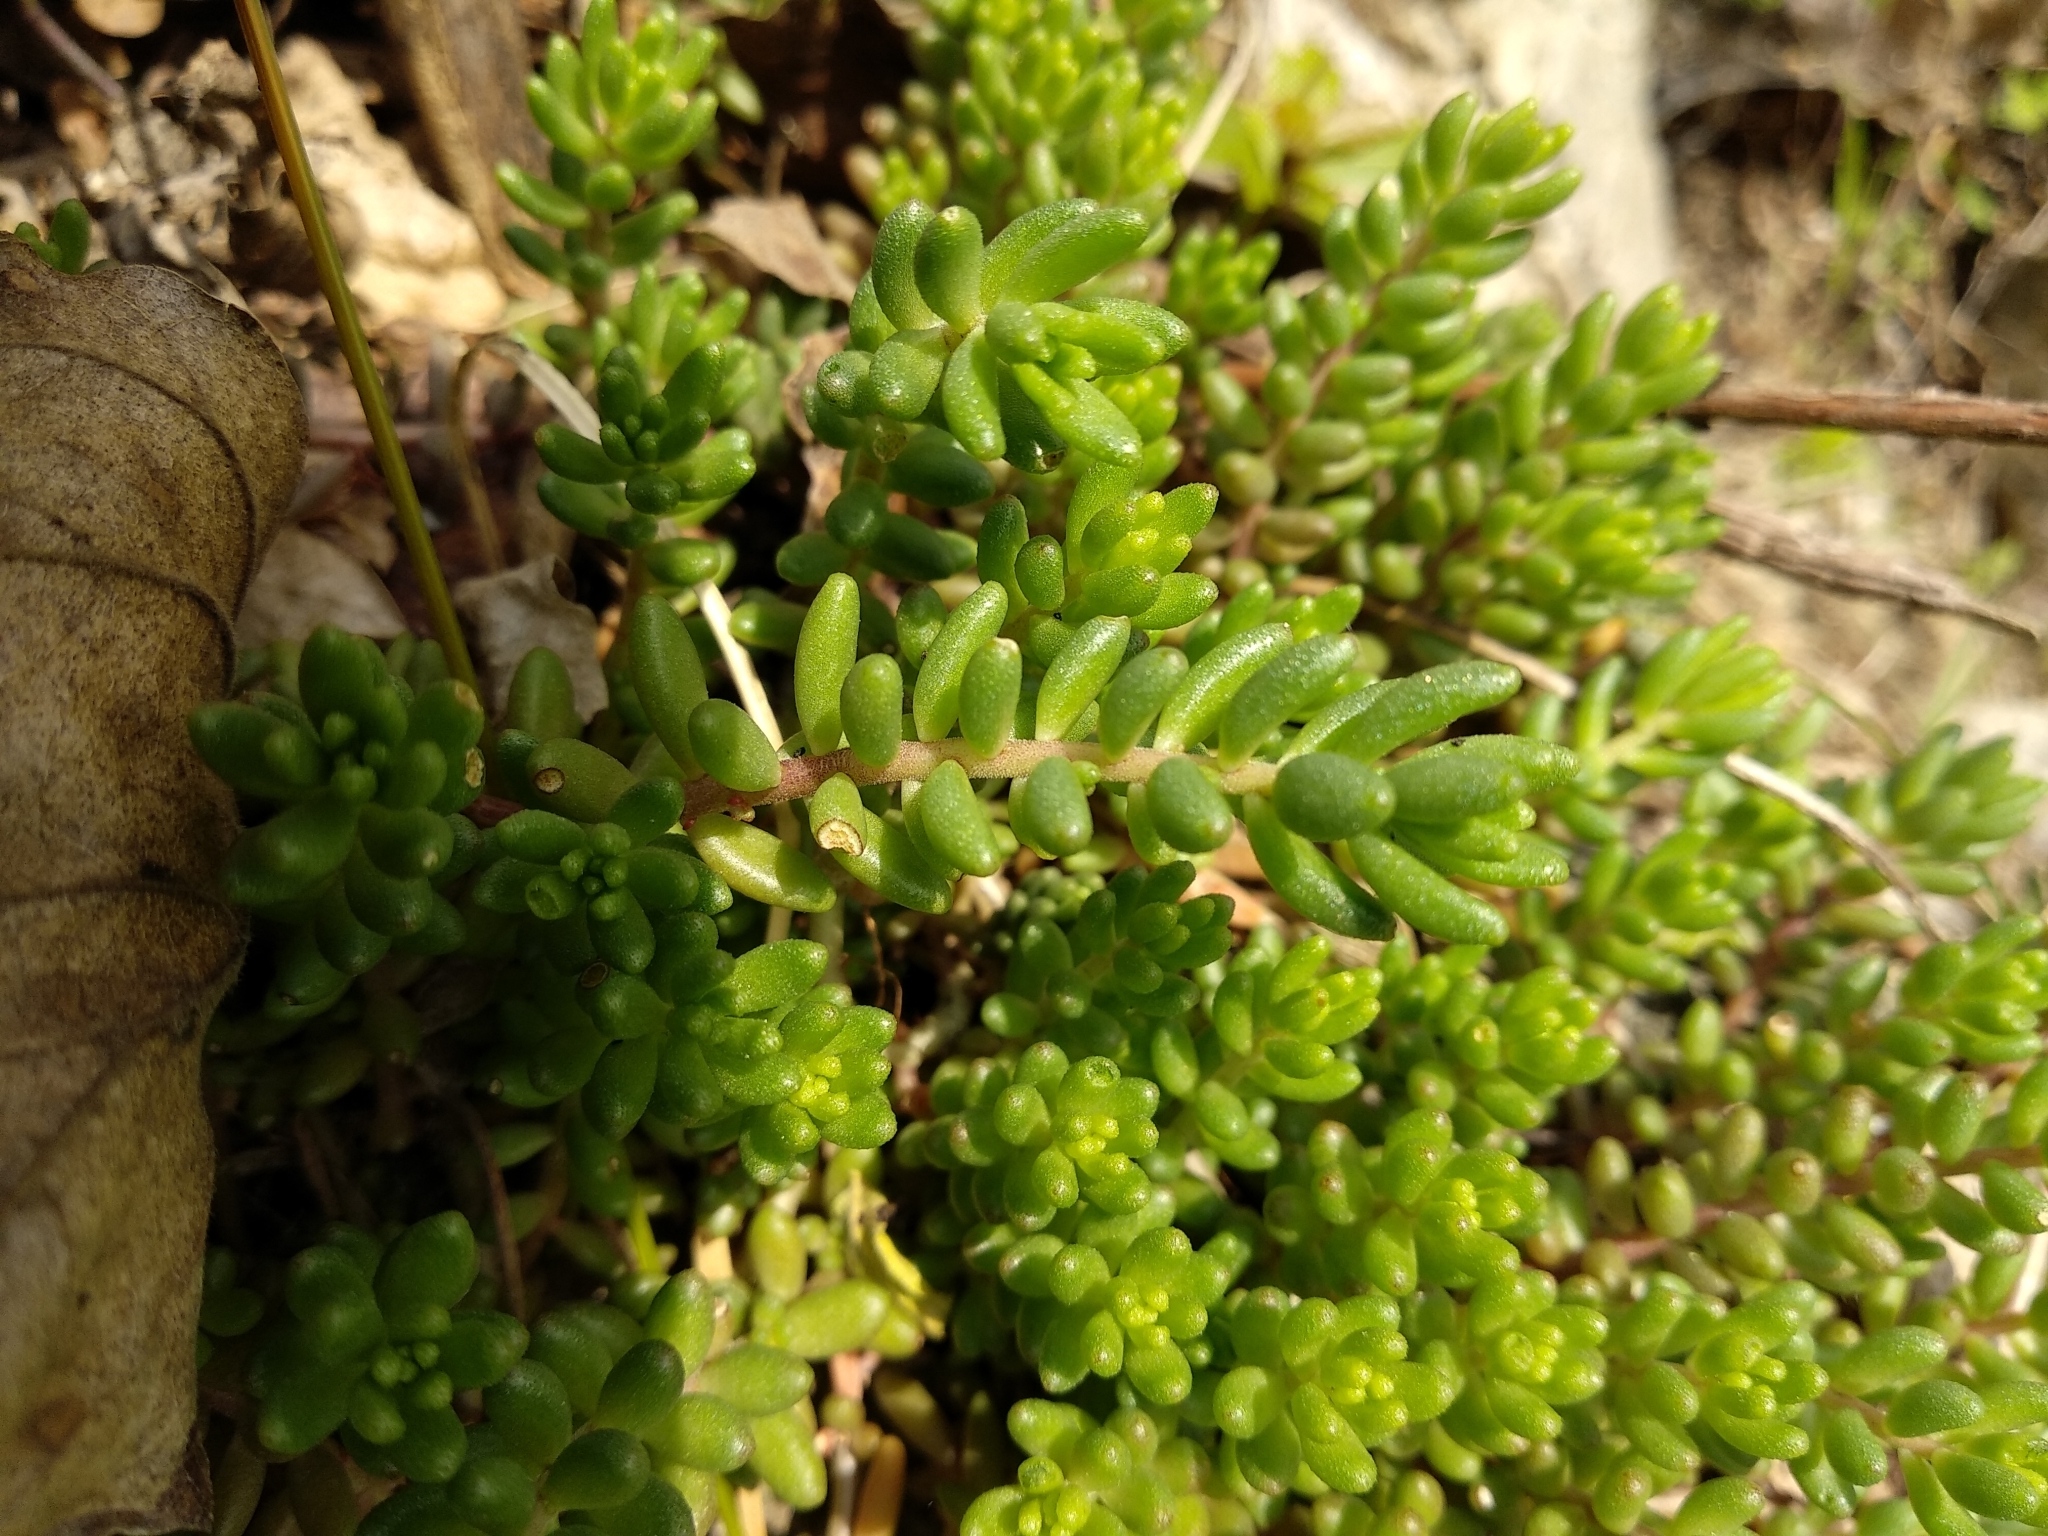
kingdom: Plantae
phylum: Tracheophyta
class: Magnoliopsida
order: Saxifragales
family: Crassulaceae
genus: Sedum
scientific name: Sedum album
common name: White stonecrop
